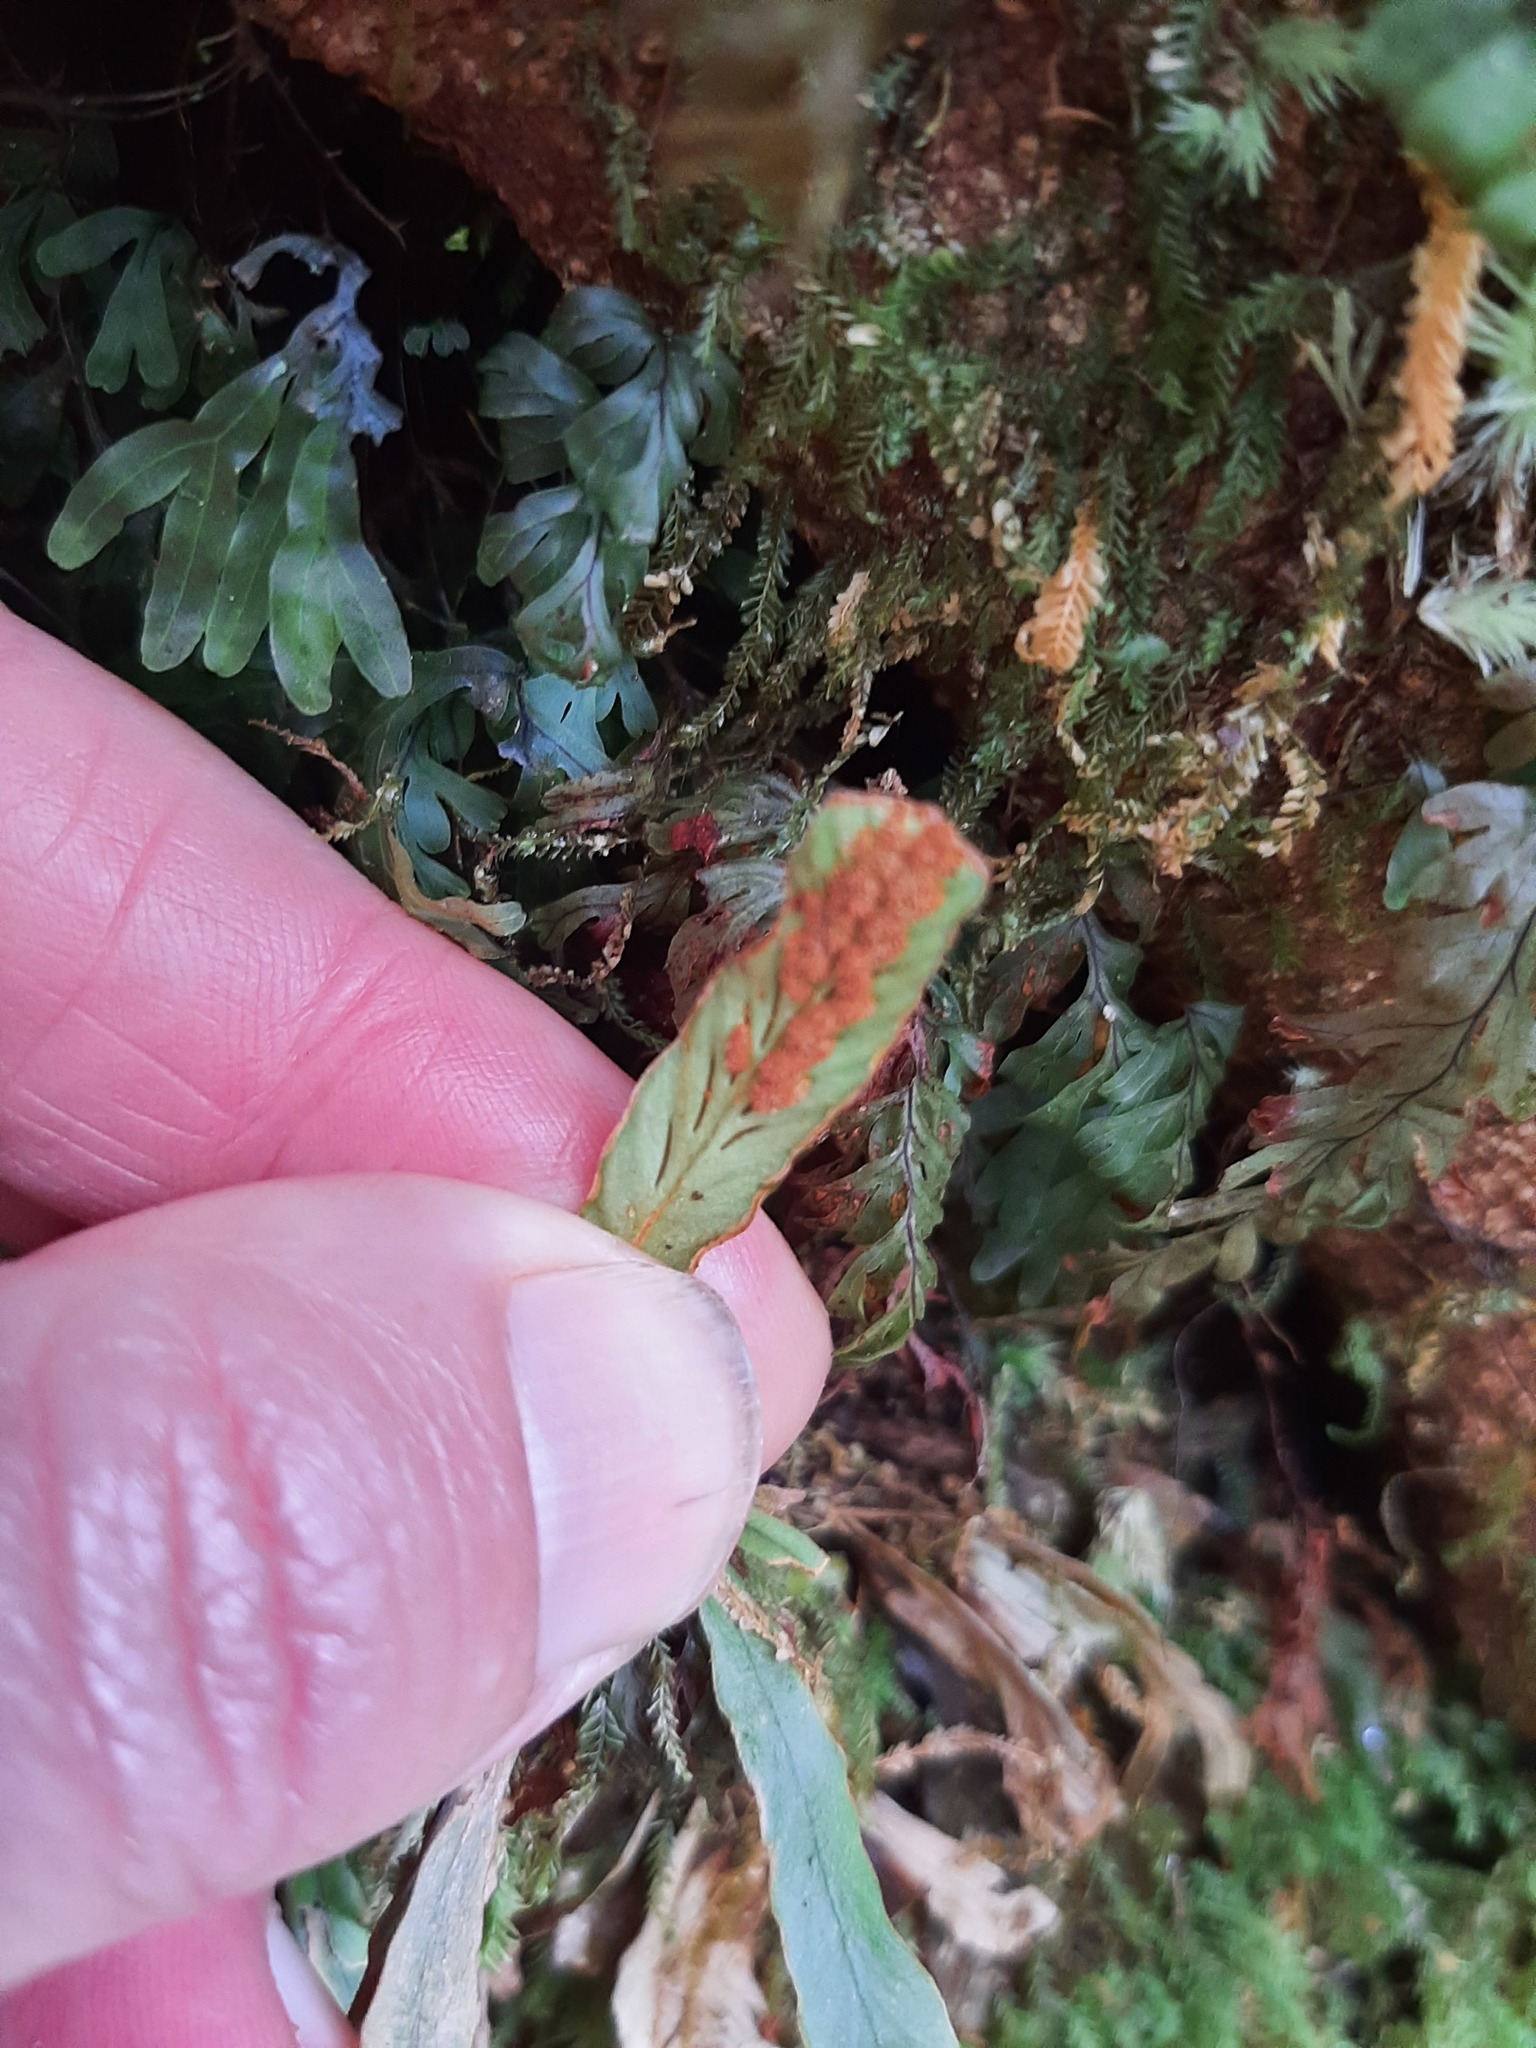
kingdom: Plantae
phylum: Tracheophyta
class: Polypodiopsida
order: Polypodiales
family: Polypodiaceae
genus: Notogrammitis
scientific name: Notogrammitis billardierei
